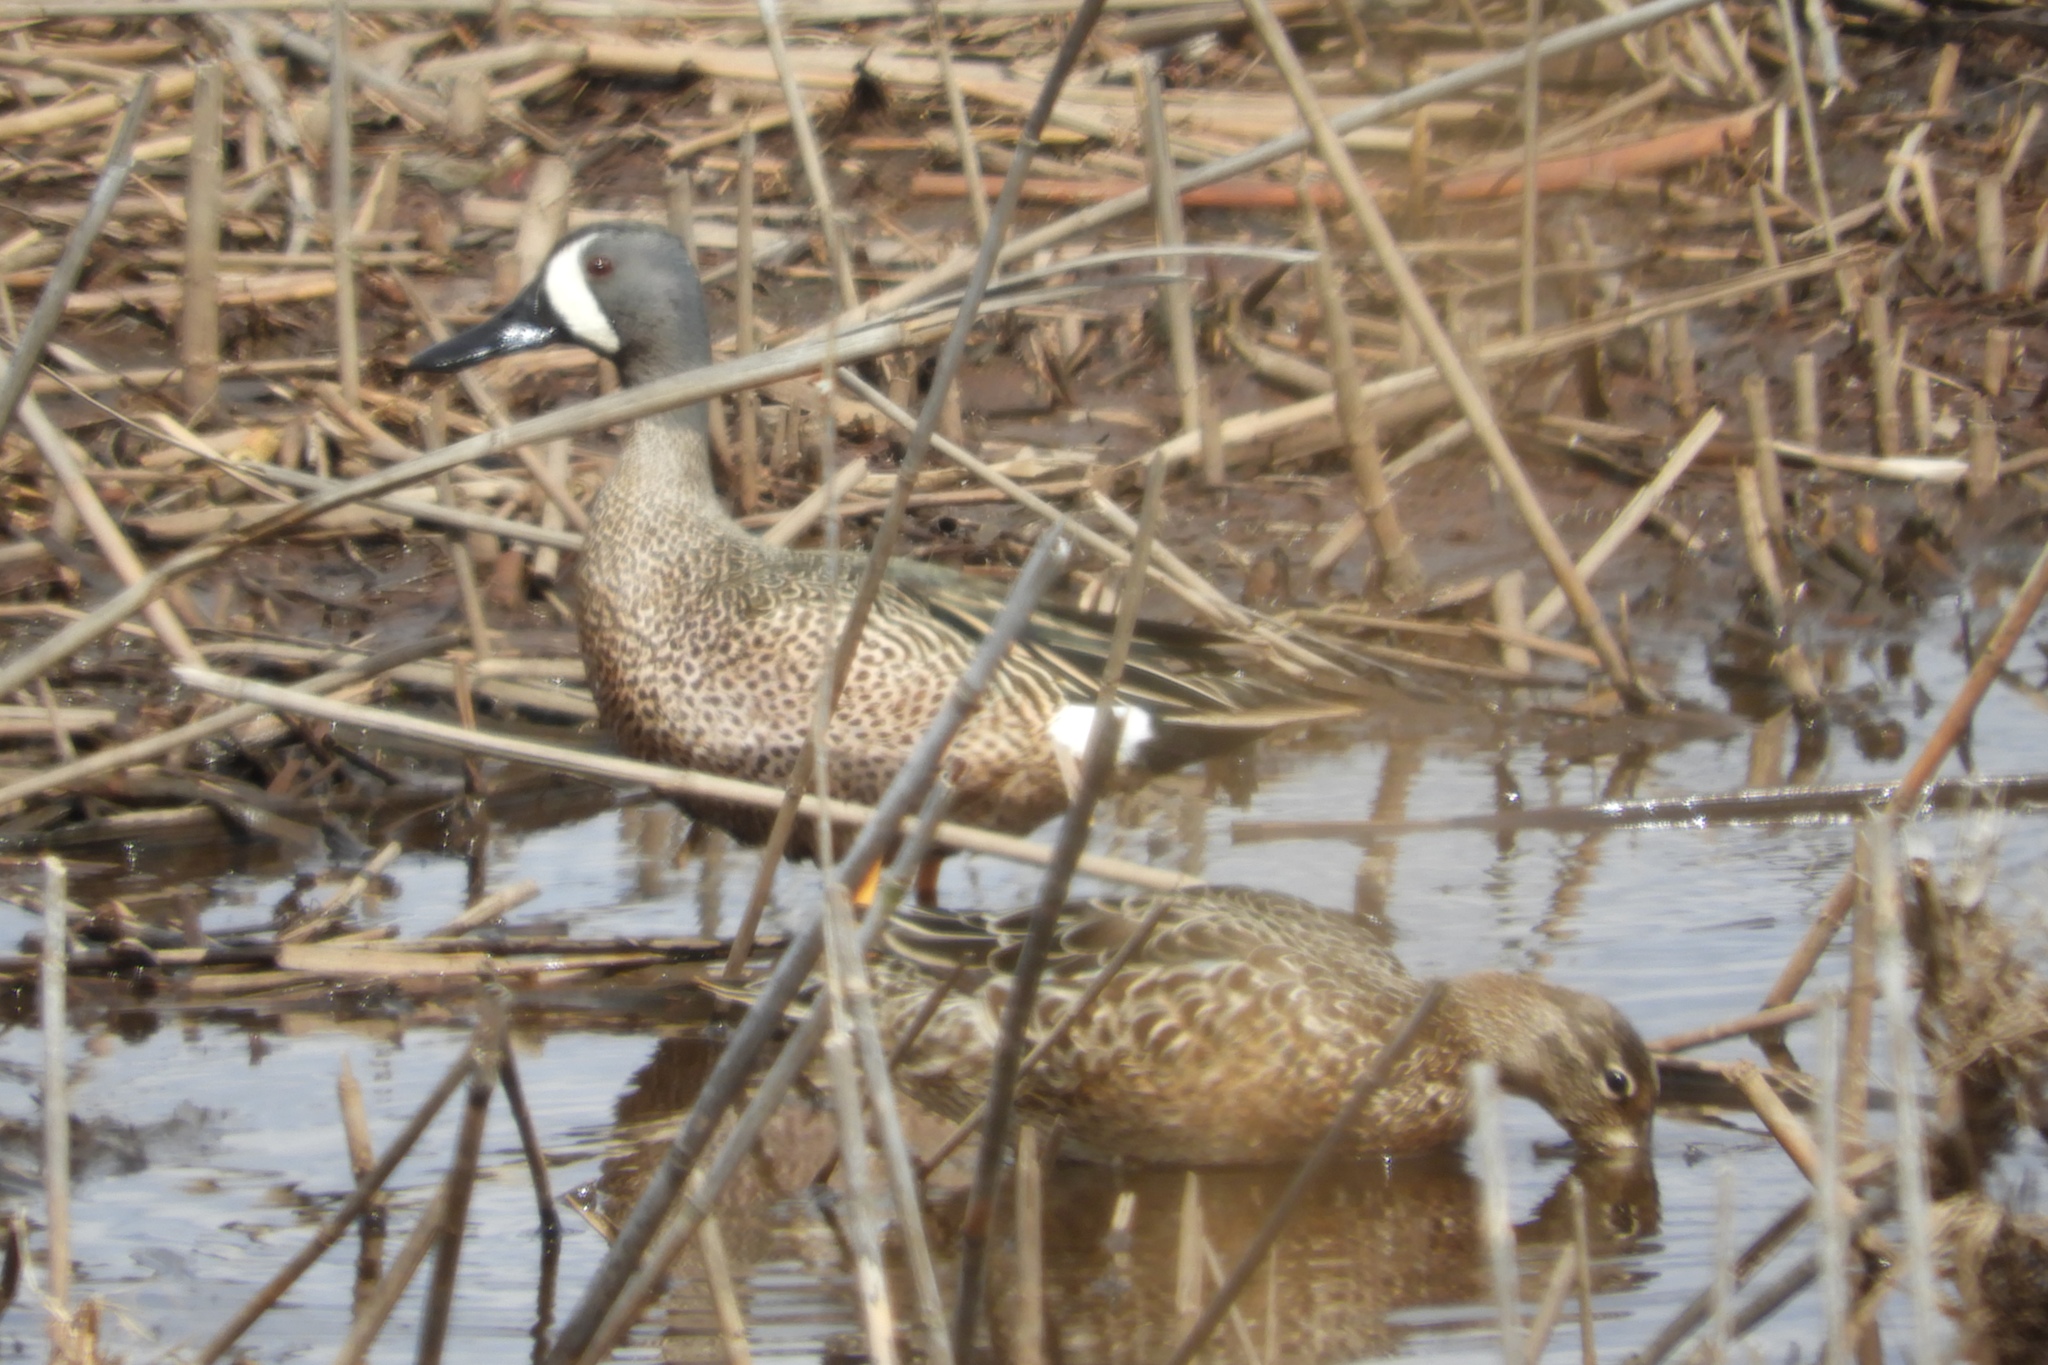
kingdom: Animalia
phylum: Chordata
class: Aves
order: Anseriformes
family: Anatidae
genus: Spatula
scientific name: Spatula discors
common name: Blue-winged teal
